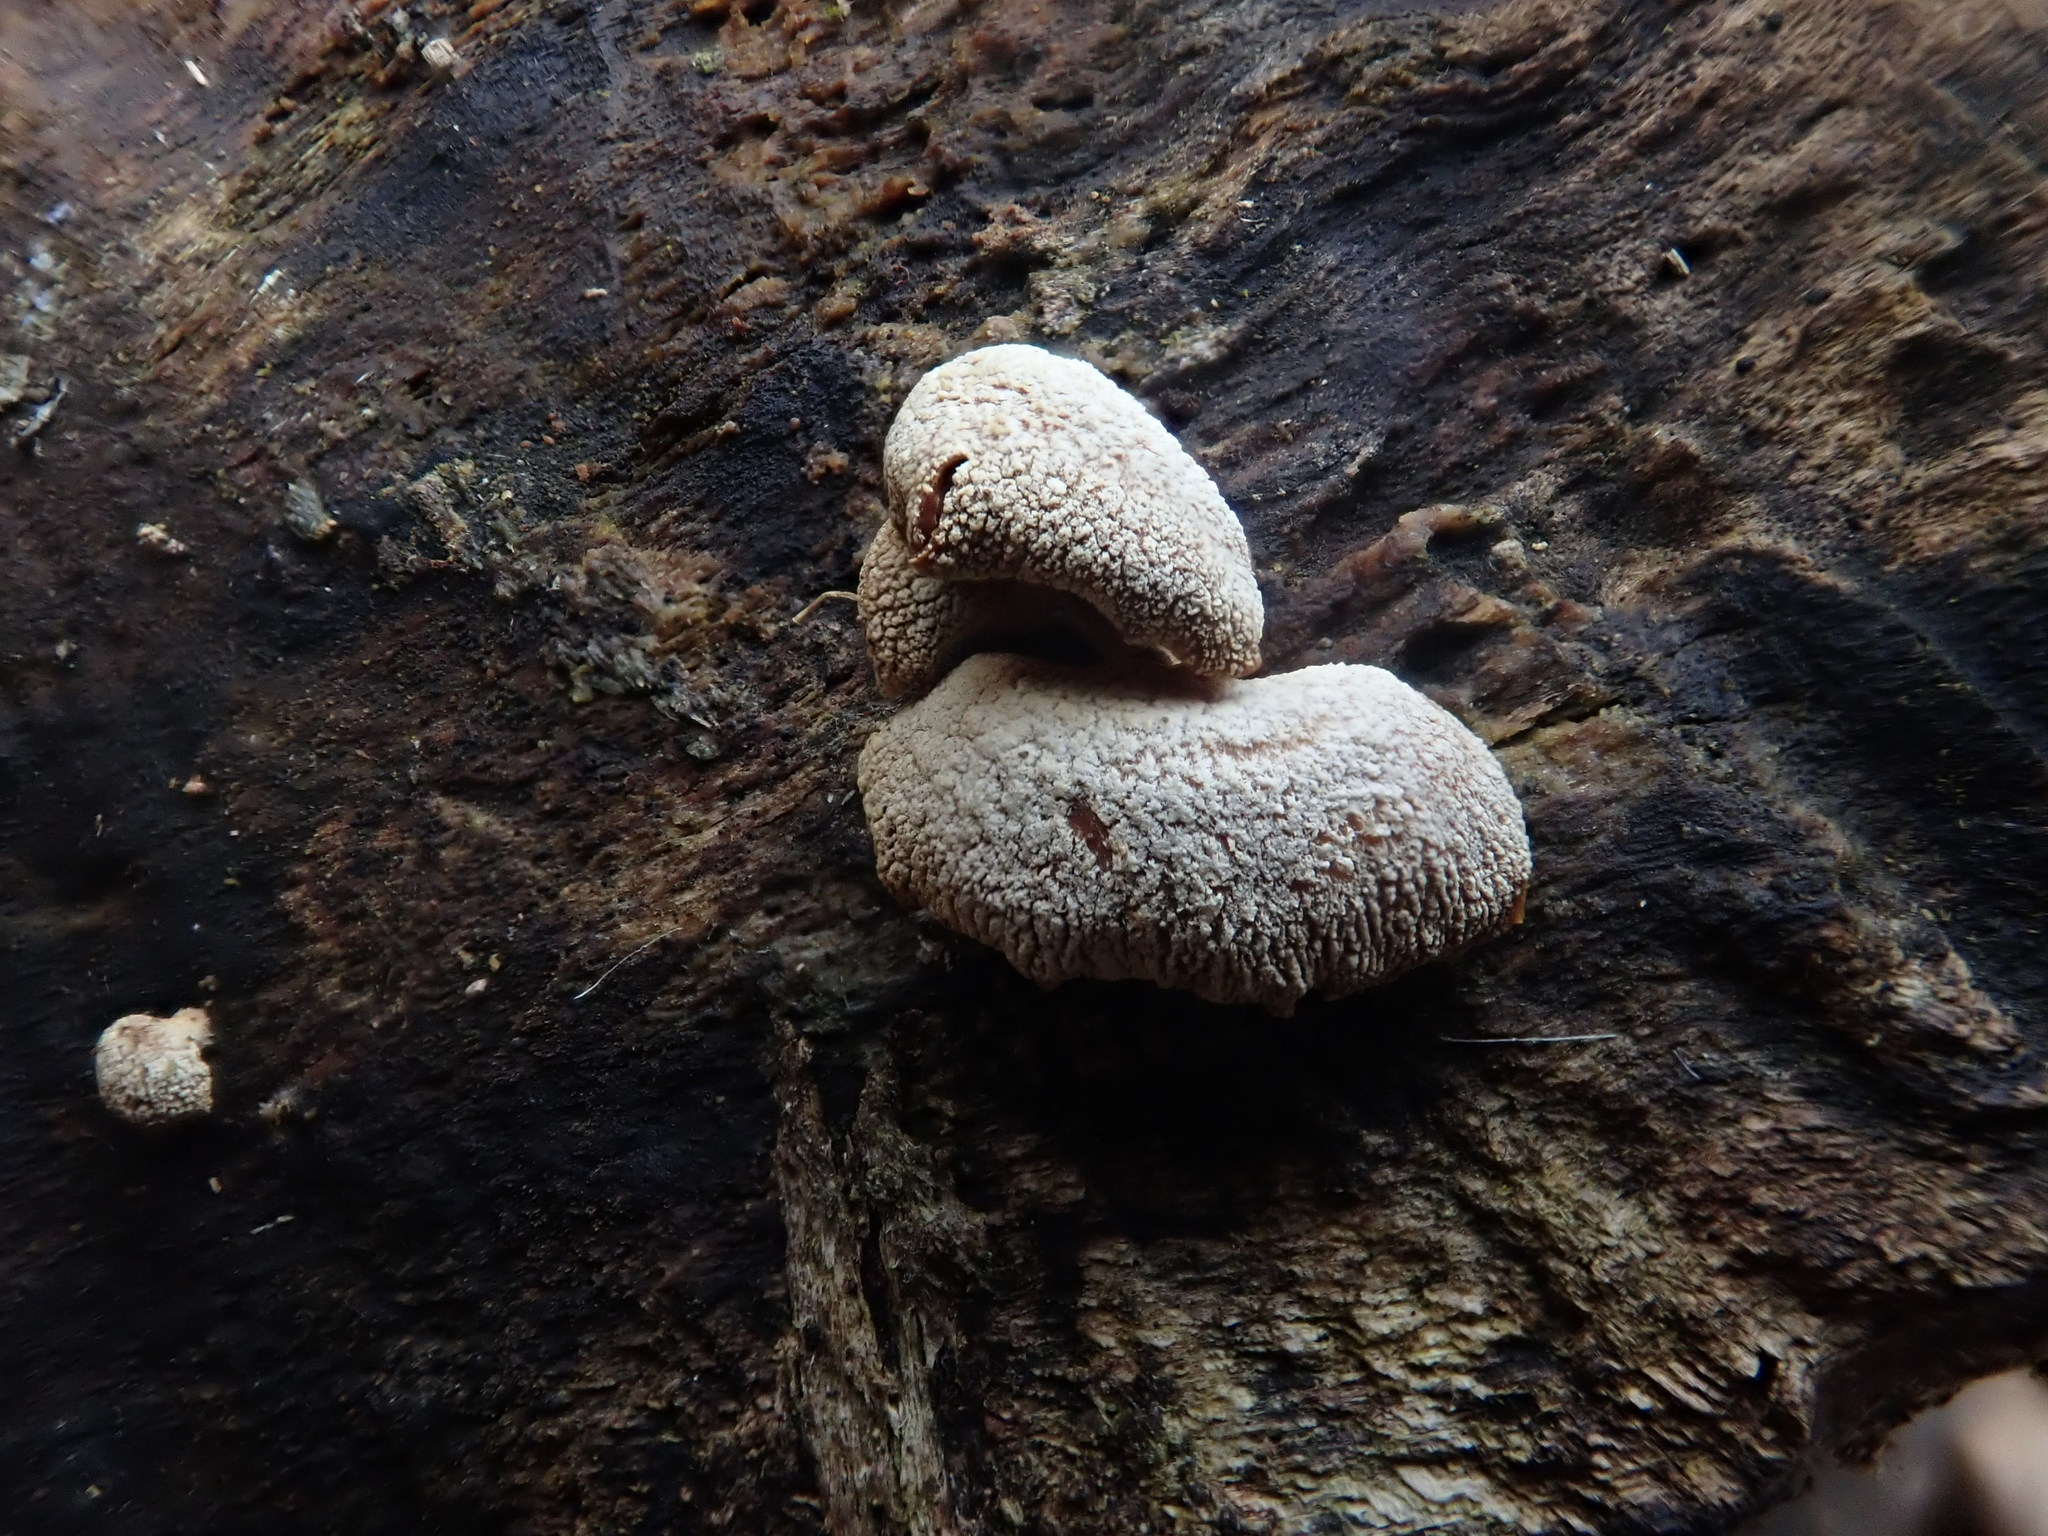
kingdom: Fungi
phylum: Basidiomycota
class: Agaricomycetes
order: Agaricales
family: Mycenaceae
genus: Panellus
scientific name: Panellus stipticus
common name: Bitter oysterling
